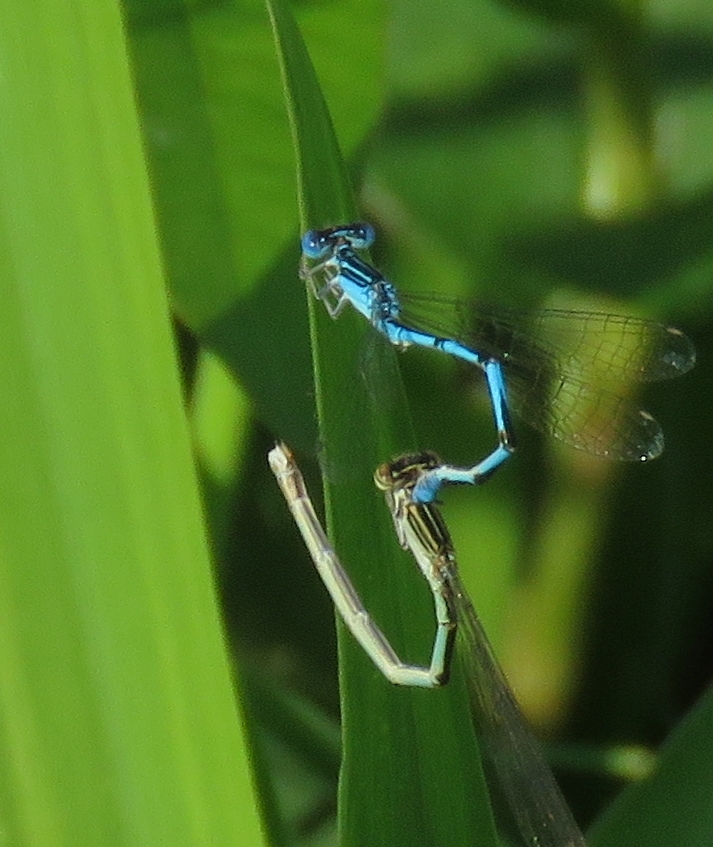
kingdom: Animalia
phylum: Arthropoda
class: Insecta
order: Odonata
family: Coenagrionidae
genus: Enallagma
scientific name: Enallagma basidens
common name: Double-striped bluet
